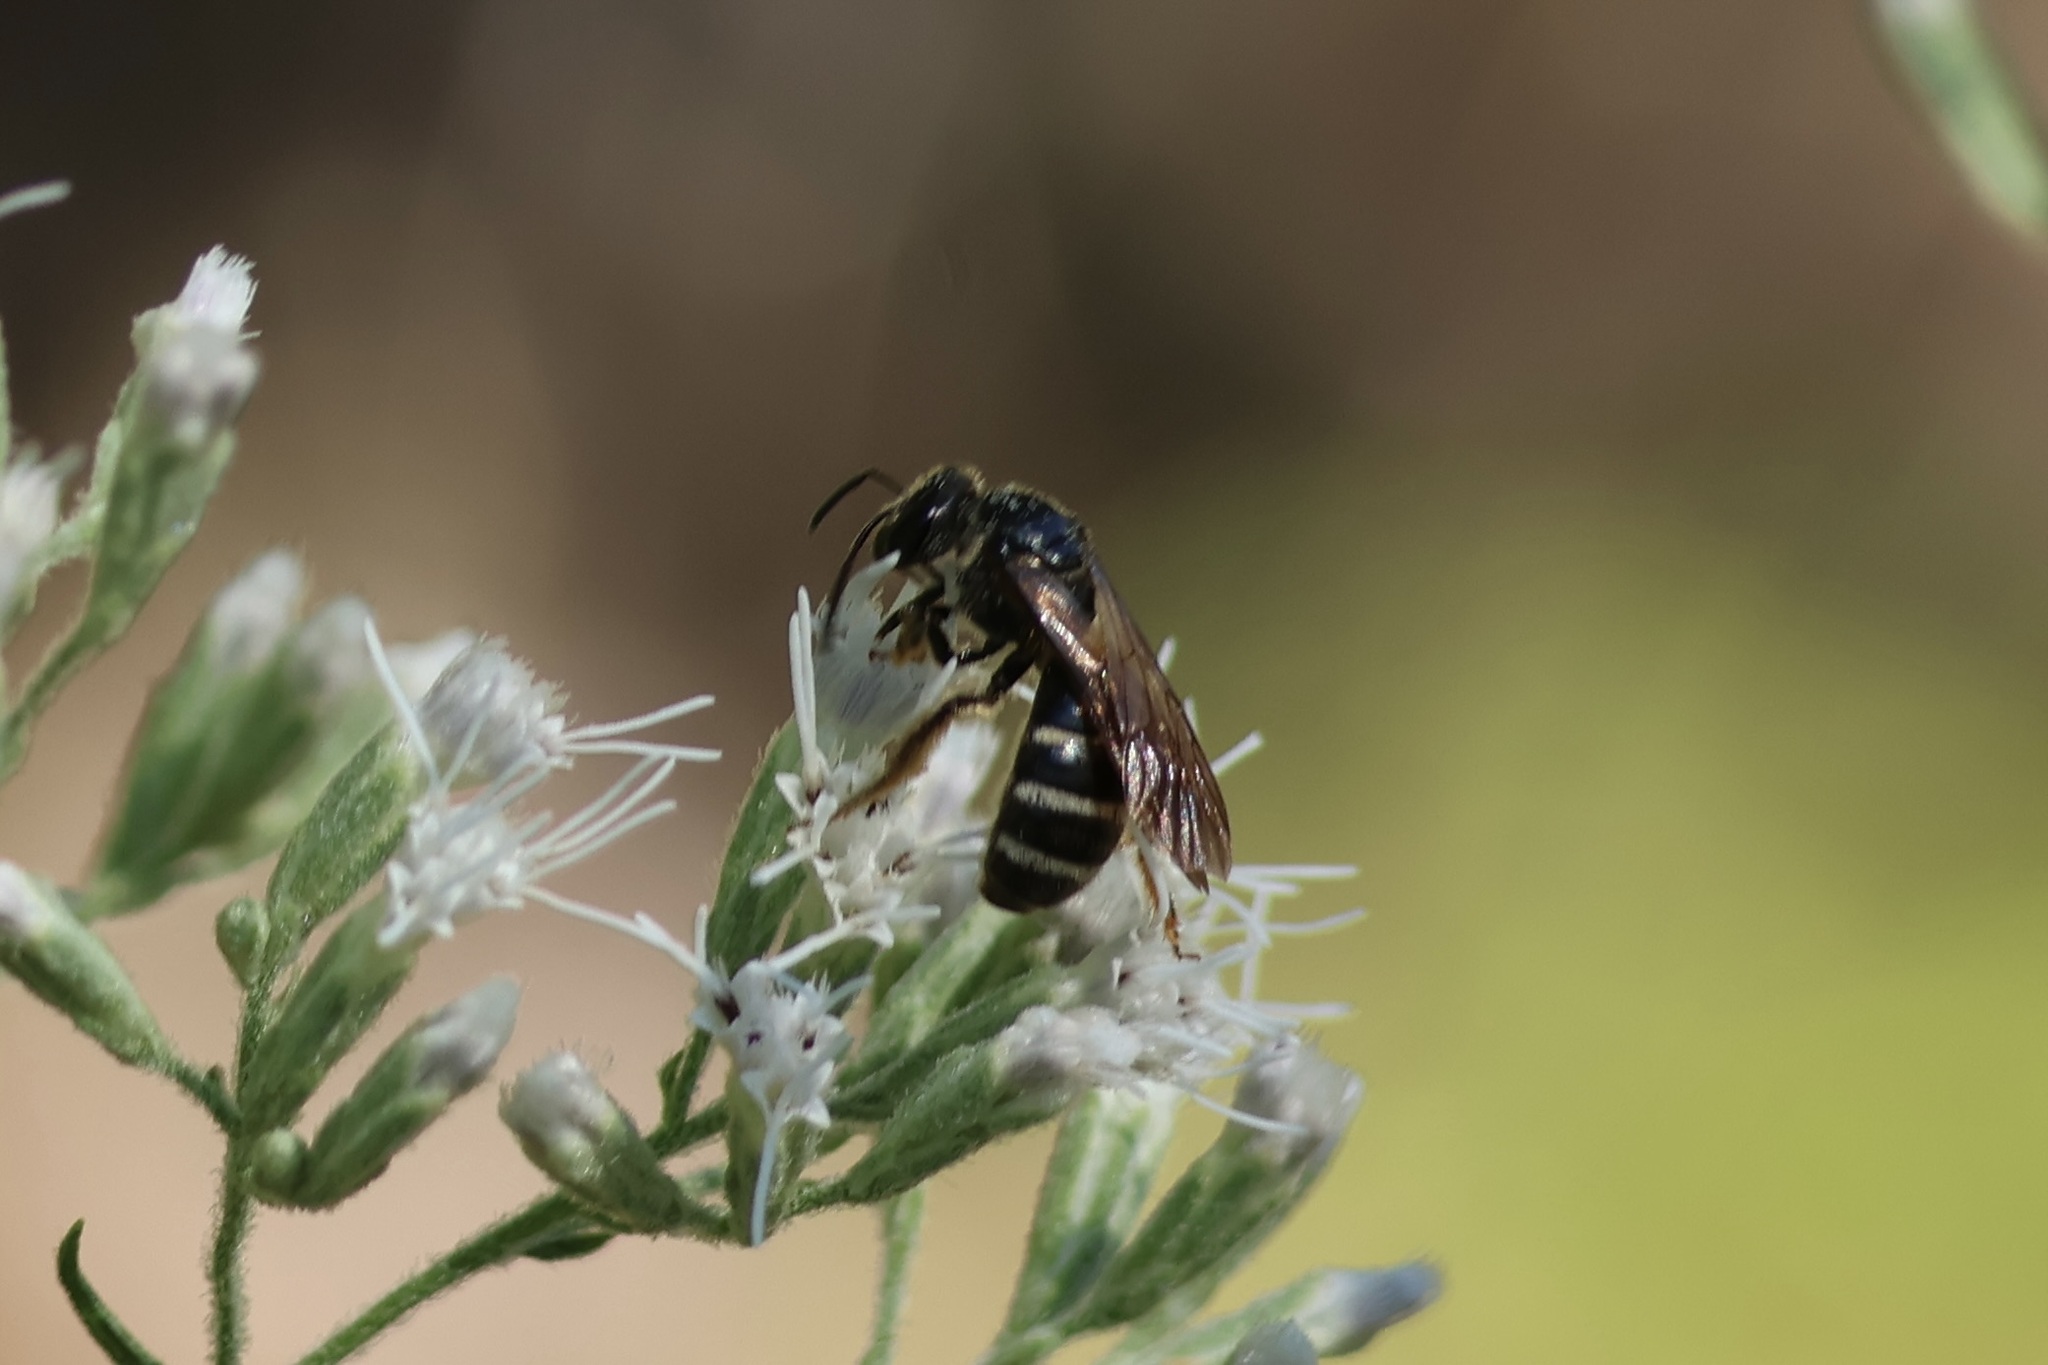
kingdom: Animalia
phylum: Arthropoda
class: Insecta
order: Hymenoptera
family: Halictidae
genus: Lasioglossum
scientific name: Lasioglossum fuscipenne
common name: Brown-winged sweat bee
